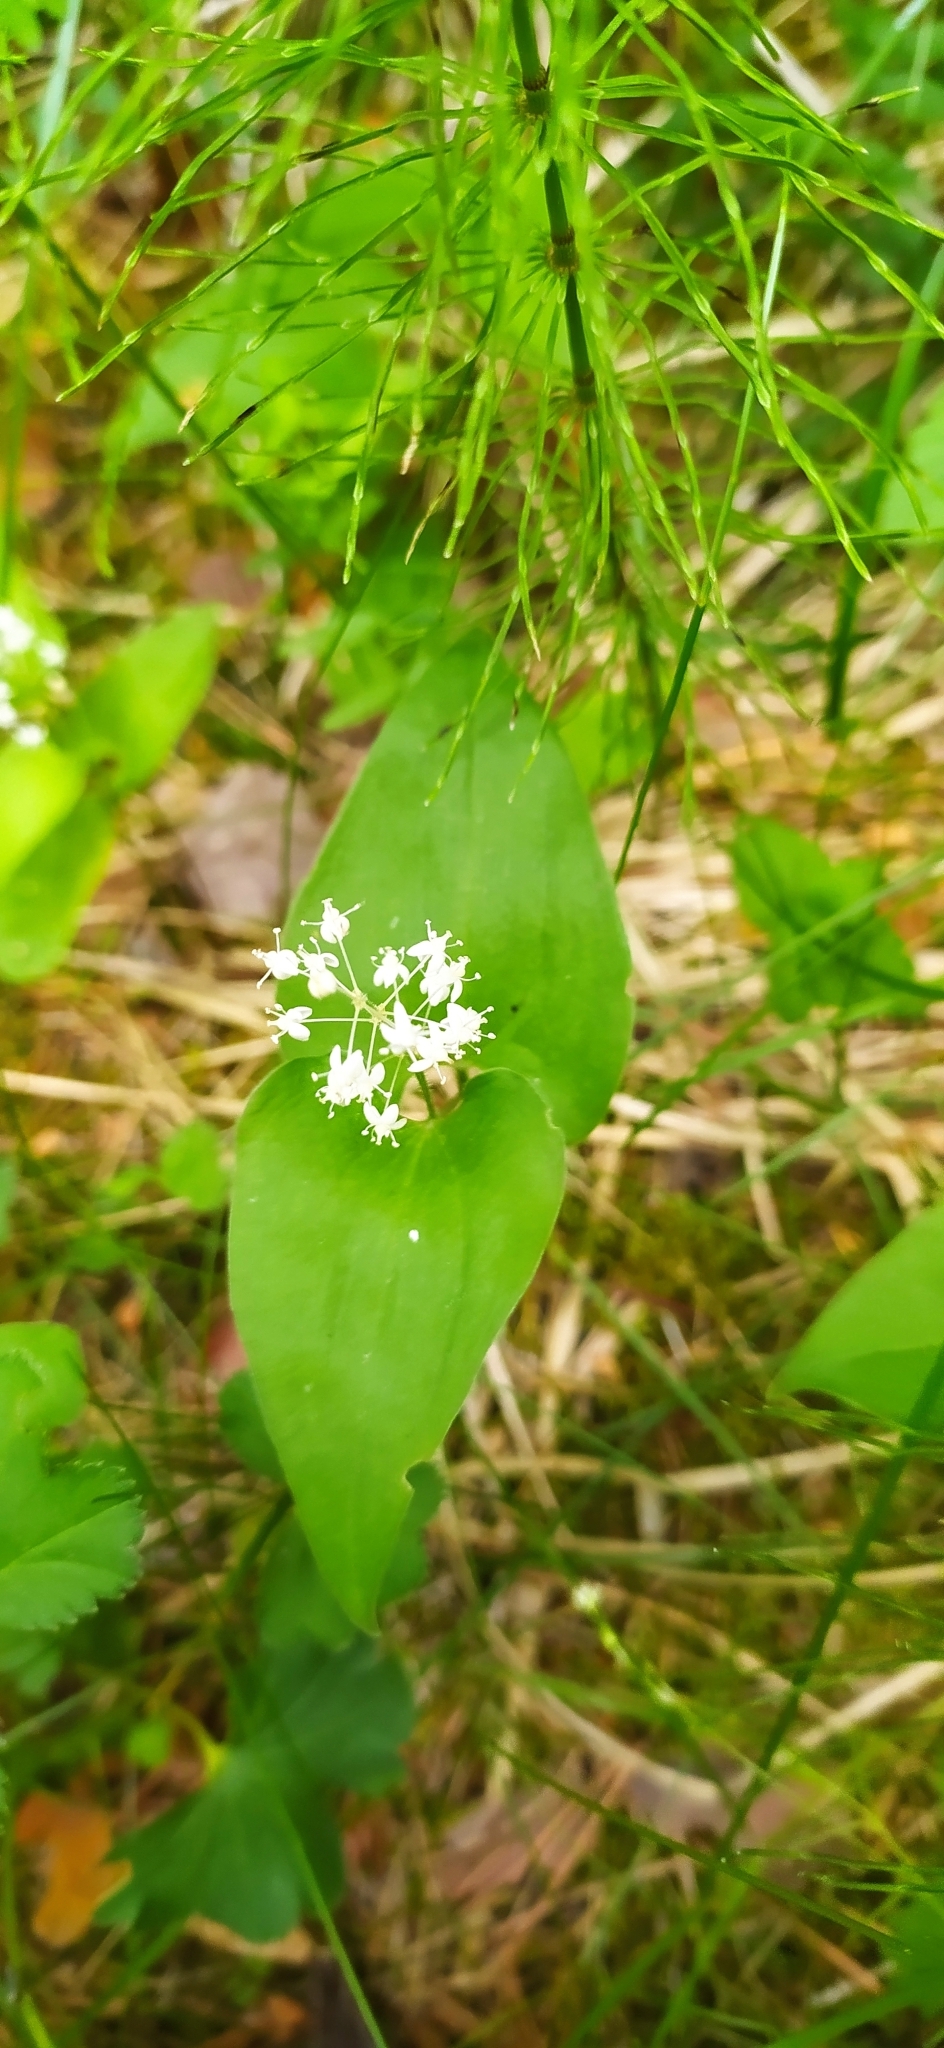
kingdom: Plantae
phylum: Tracheophyta
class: Liliopsida
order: Asparagales
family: Asparagaceae
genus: Maianthemum
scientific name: Maianthemum bifolium
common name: May lily
